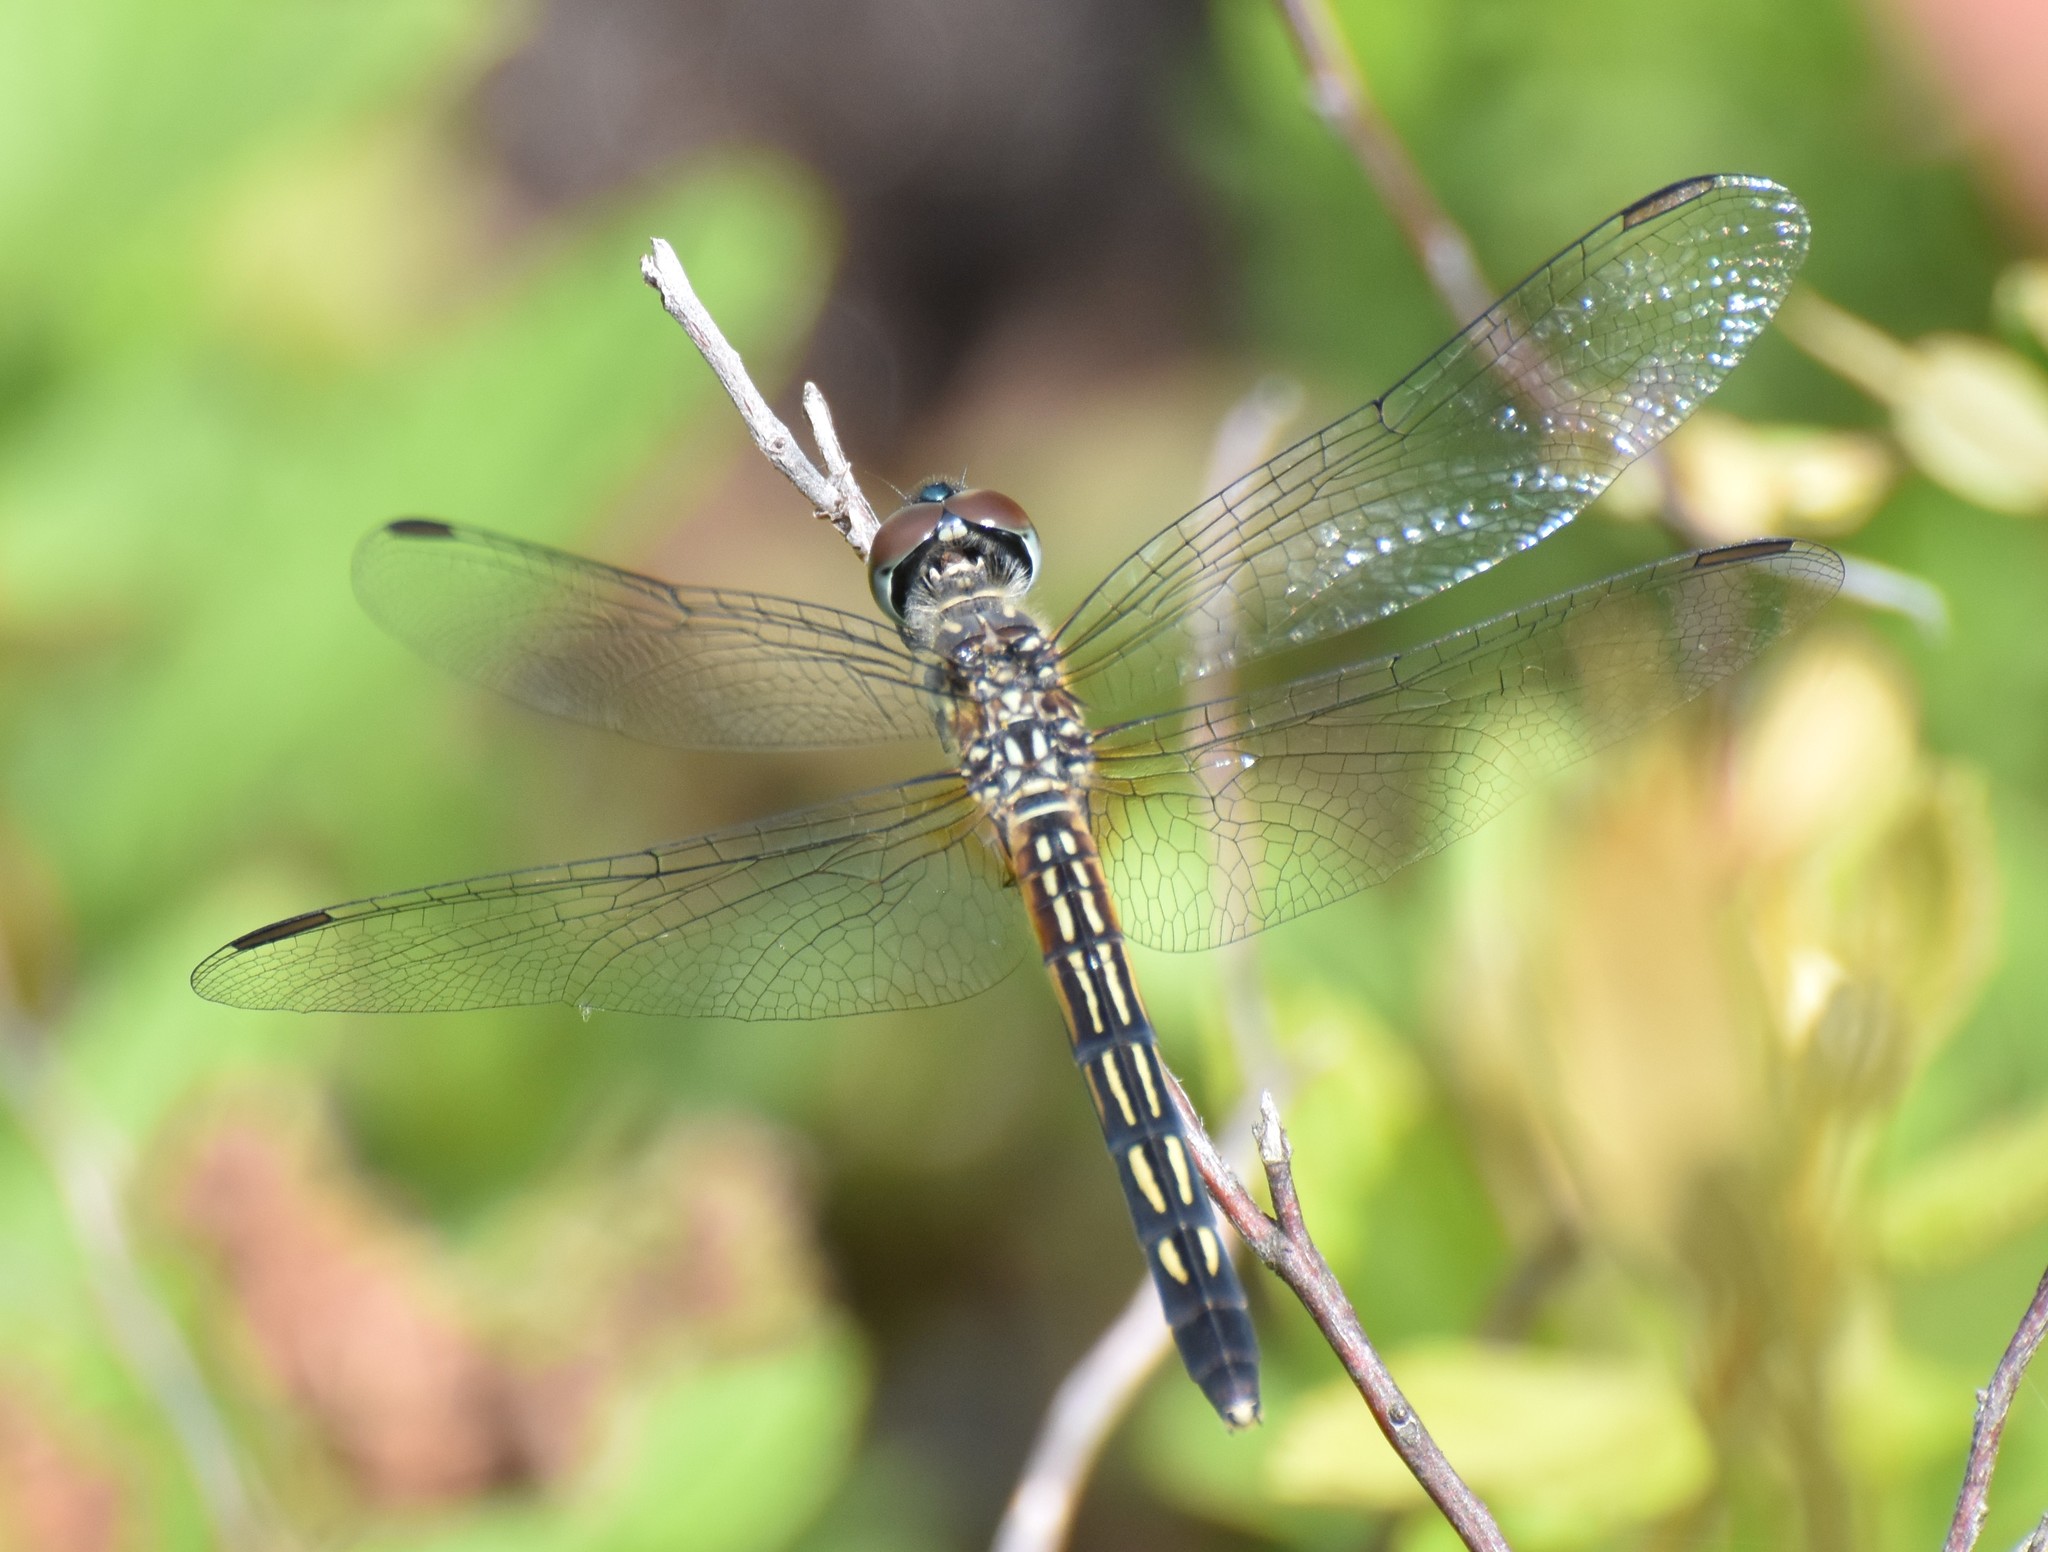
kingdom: Animalia
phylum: Arthropoda
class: Insecta
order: Odonata
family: Libellulidae
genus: Pachydiplax
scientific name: Pachydiplax longipennis
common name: Blue dasher
